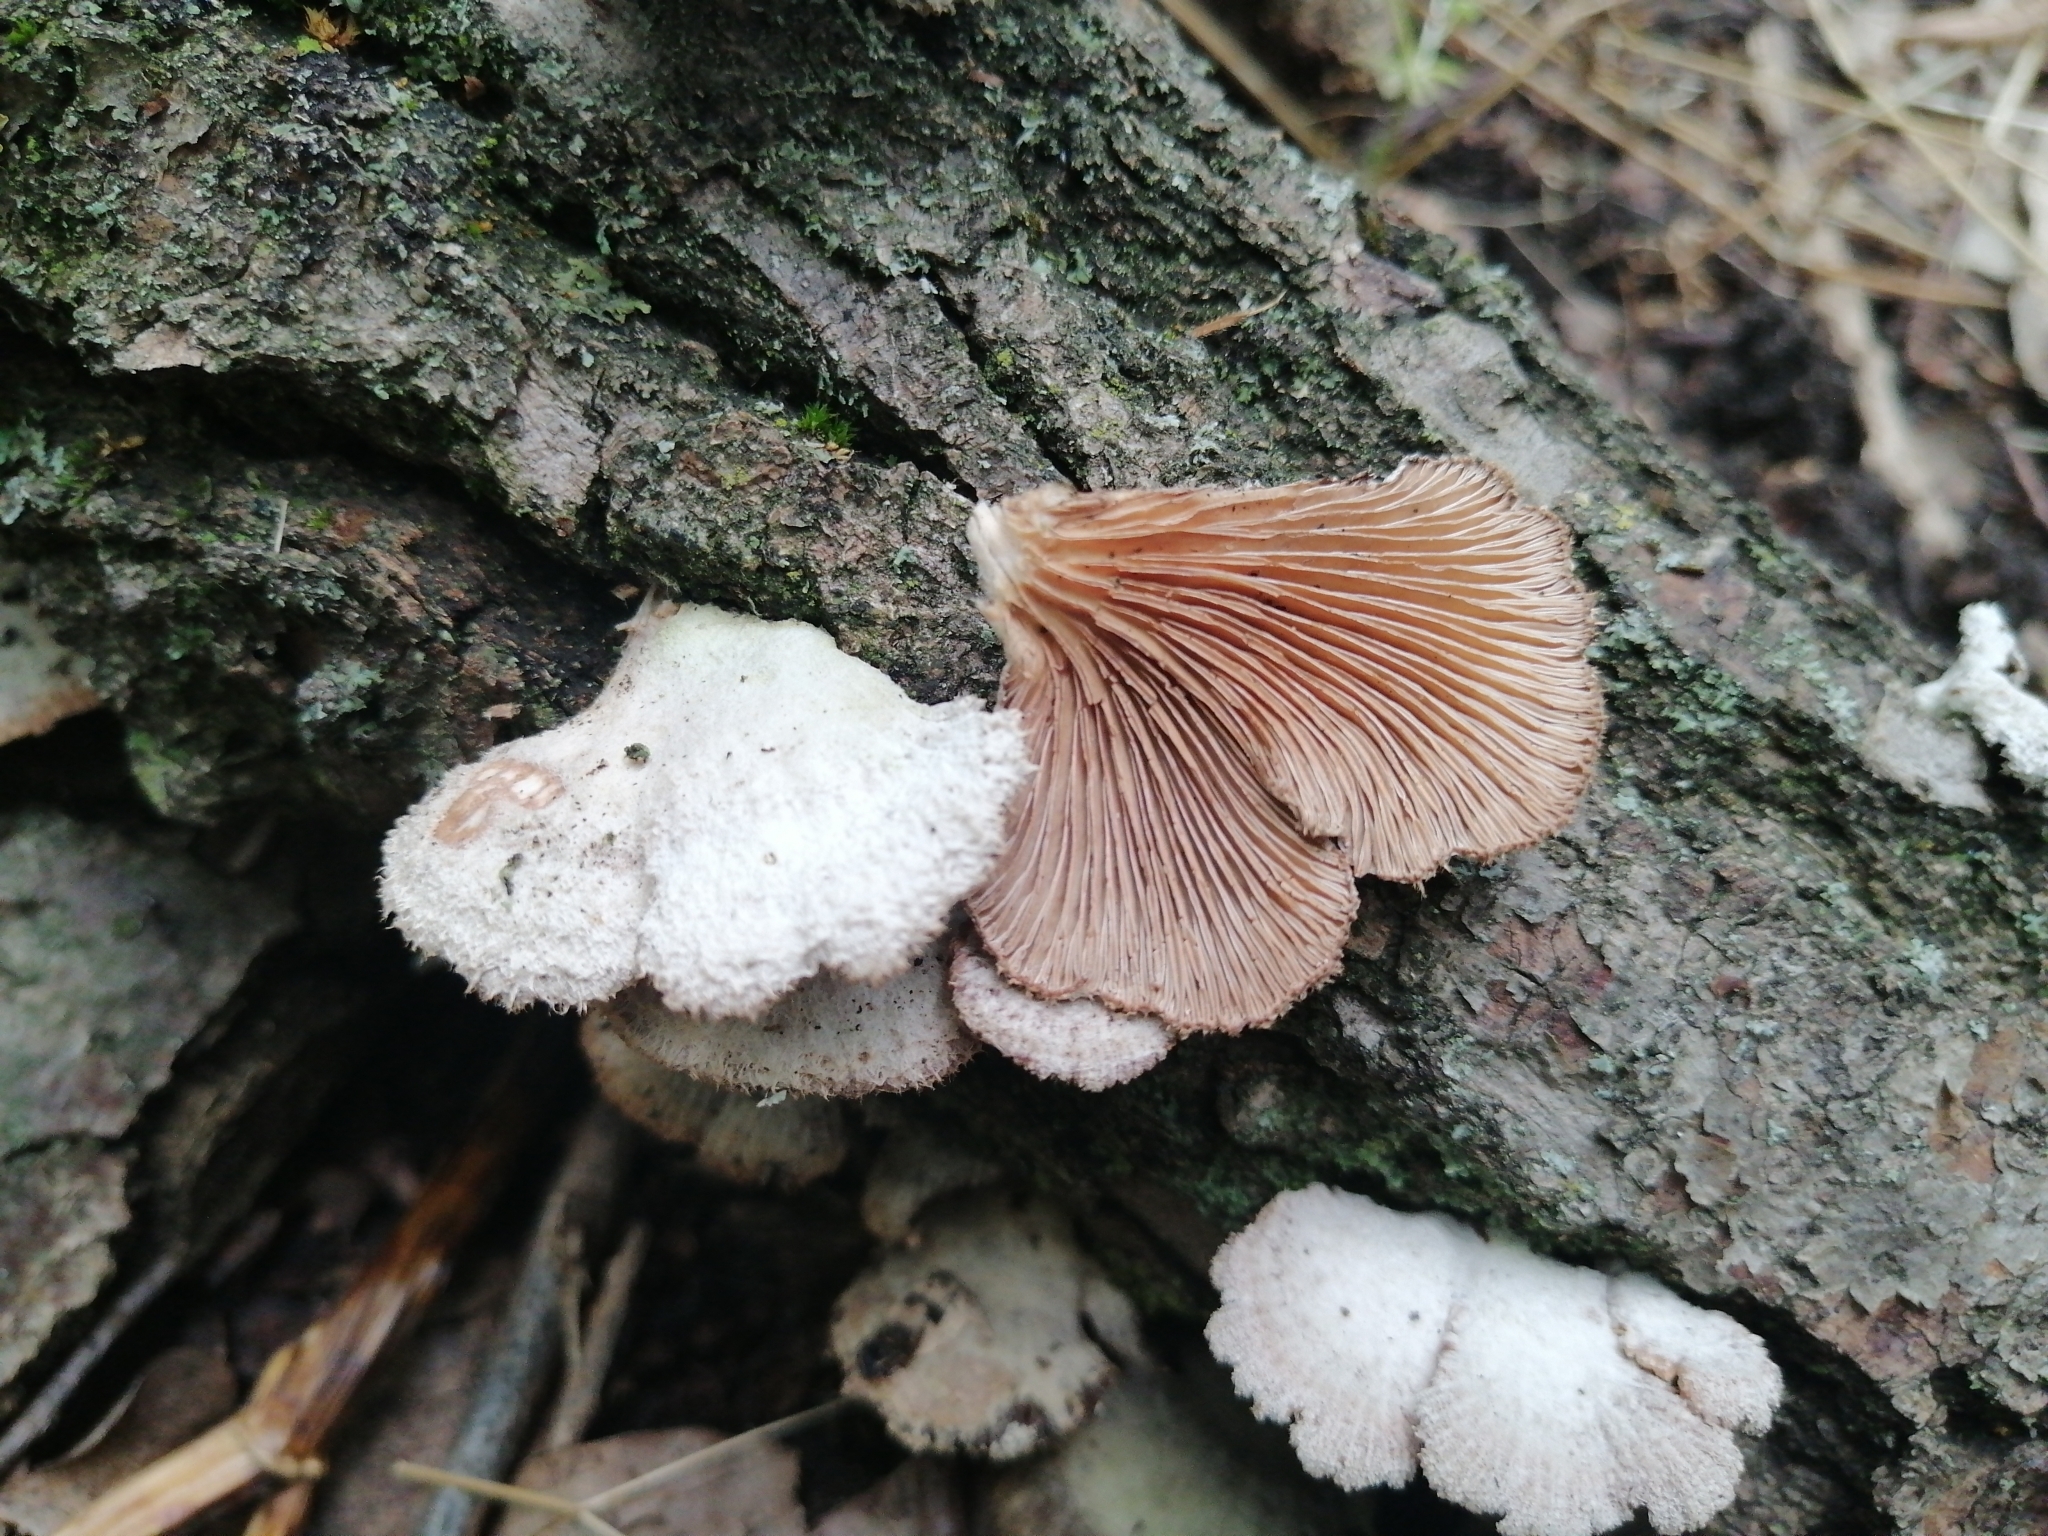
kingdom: Fungi
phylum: Basidiomycota
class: Agaricomycetes
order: Agaricales
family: Schizophyllaceae
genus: Schizophyllum
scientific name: Schizophyllum commune
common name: Common porecrust
